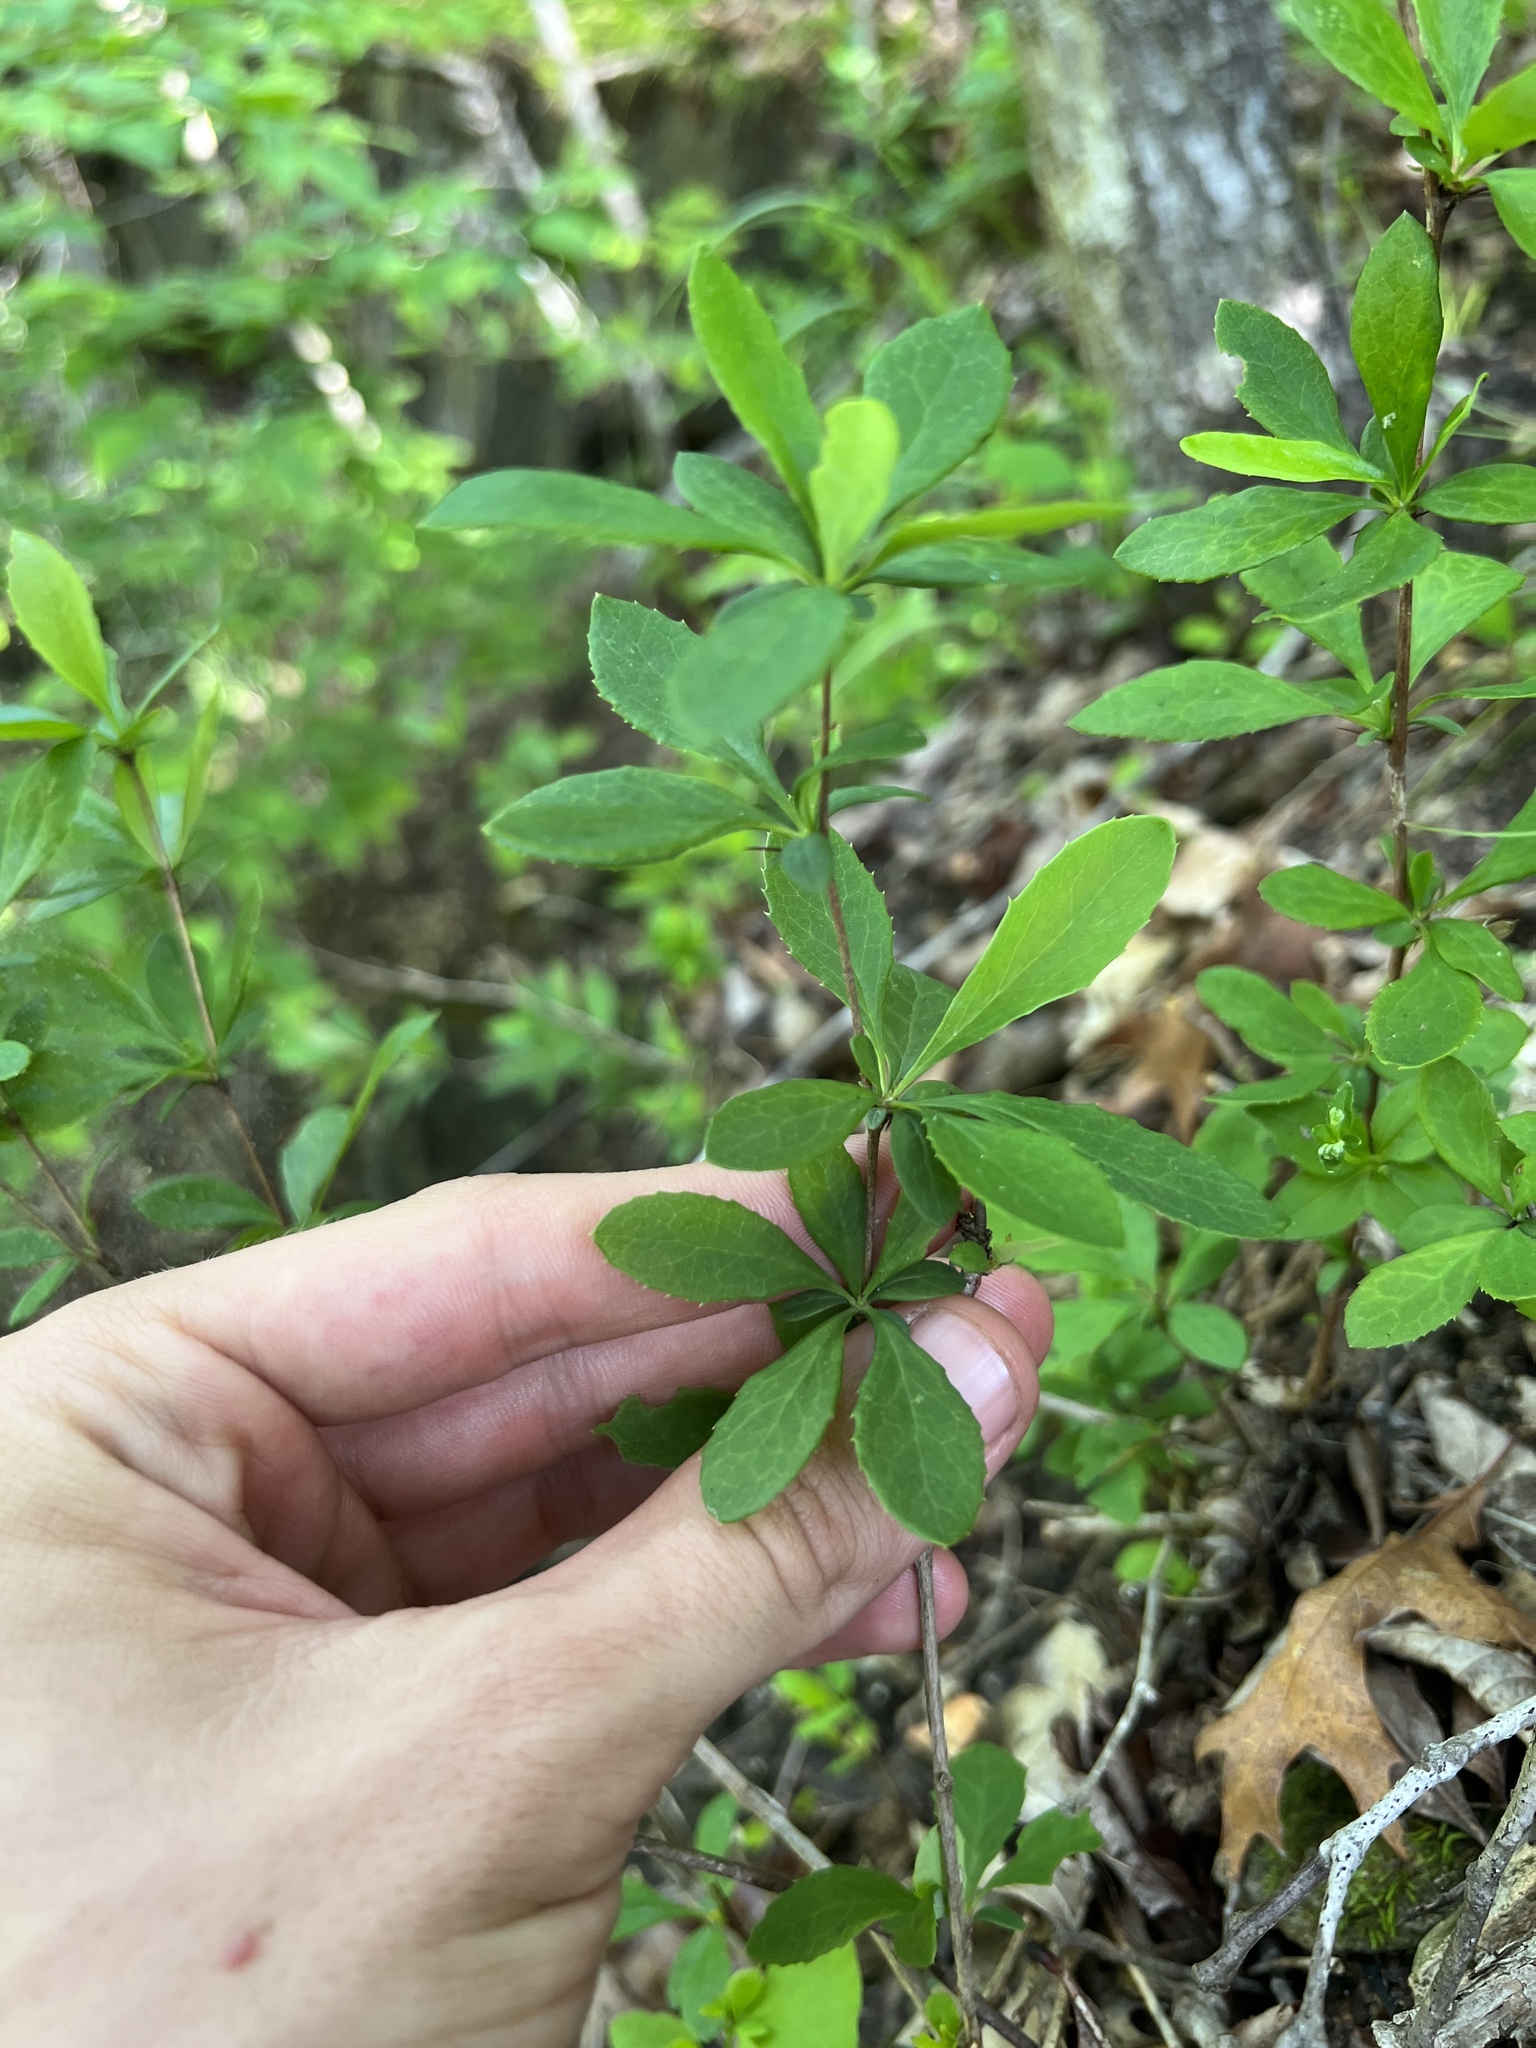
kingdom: Plantae
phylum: Tracheophyta
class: Magnoliopsida
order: Ranunculales
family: Berberidaceae
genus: Berberis
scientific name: Berberis canadensis
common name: American barberry
